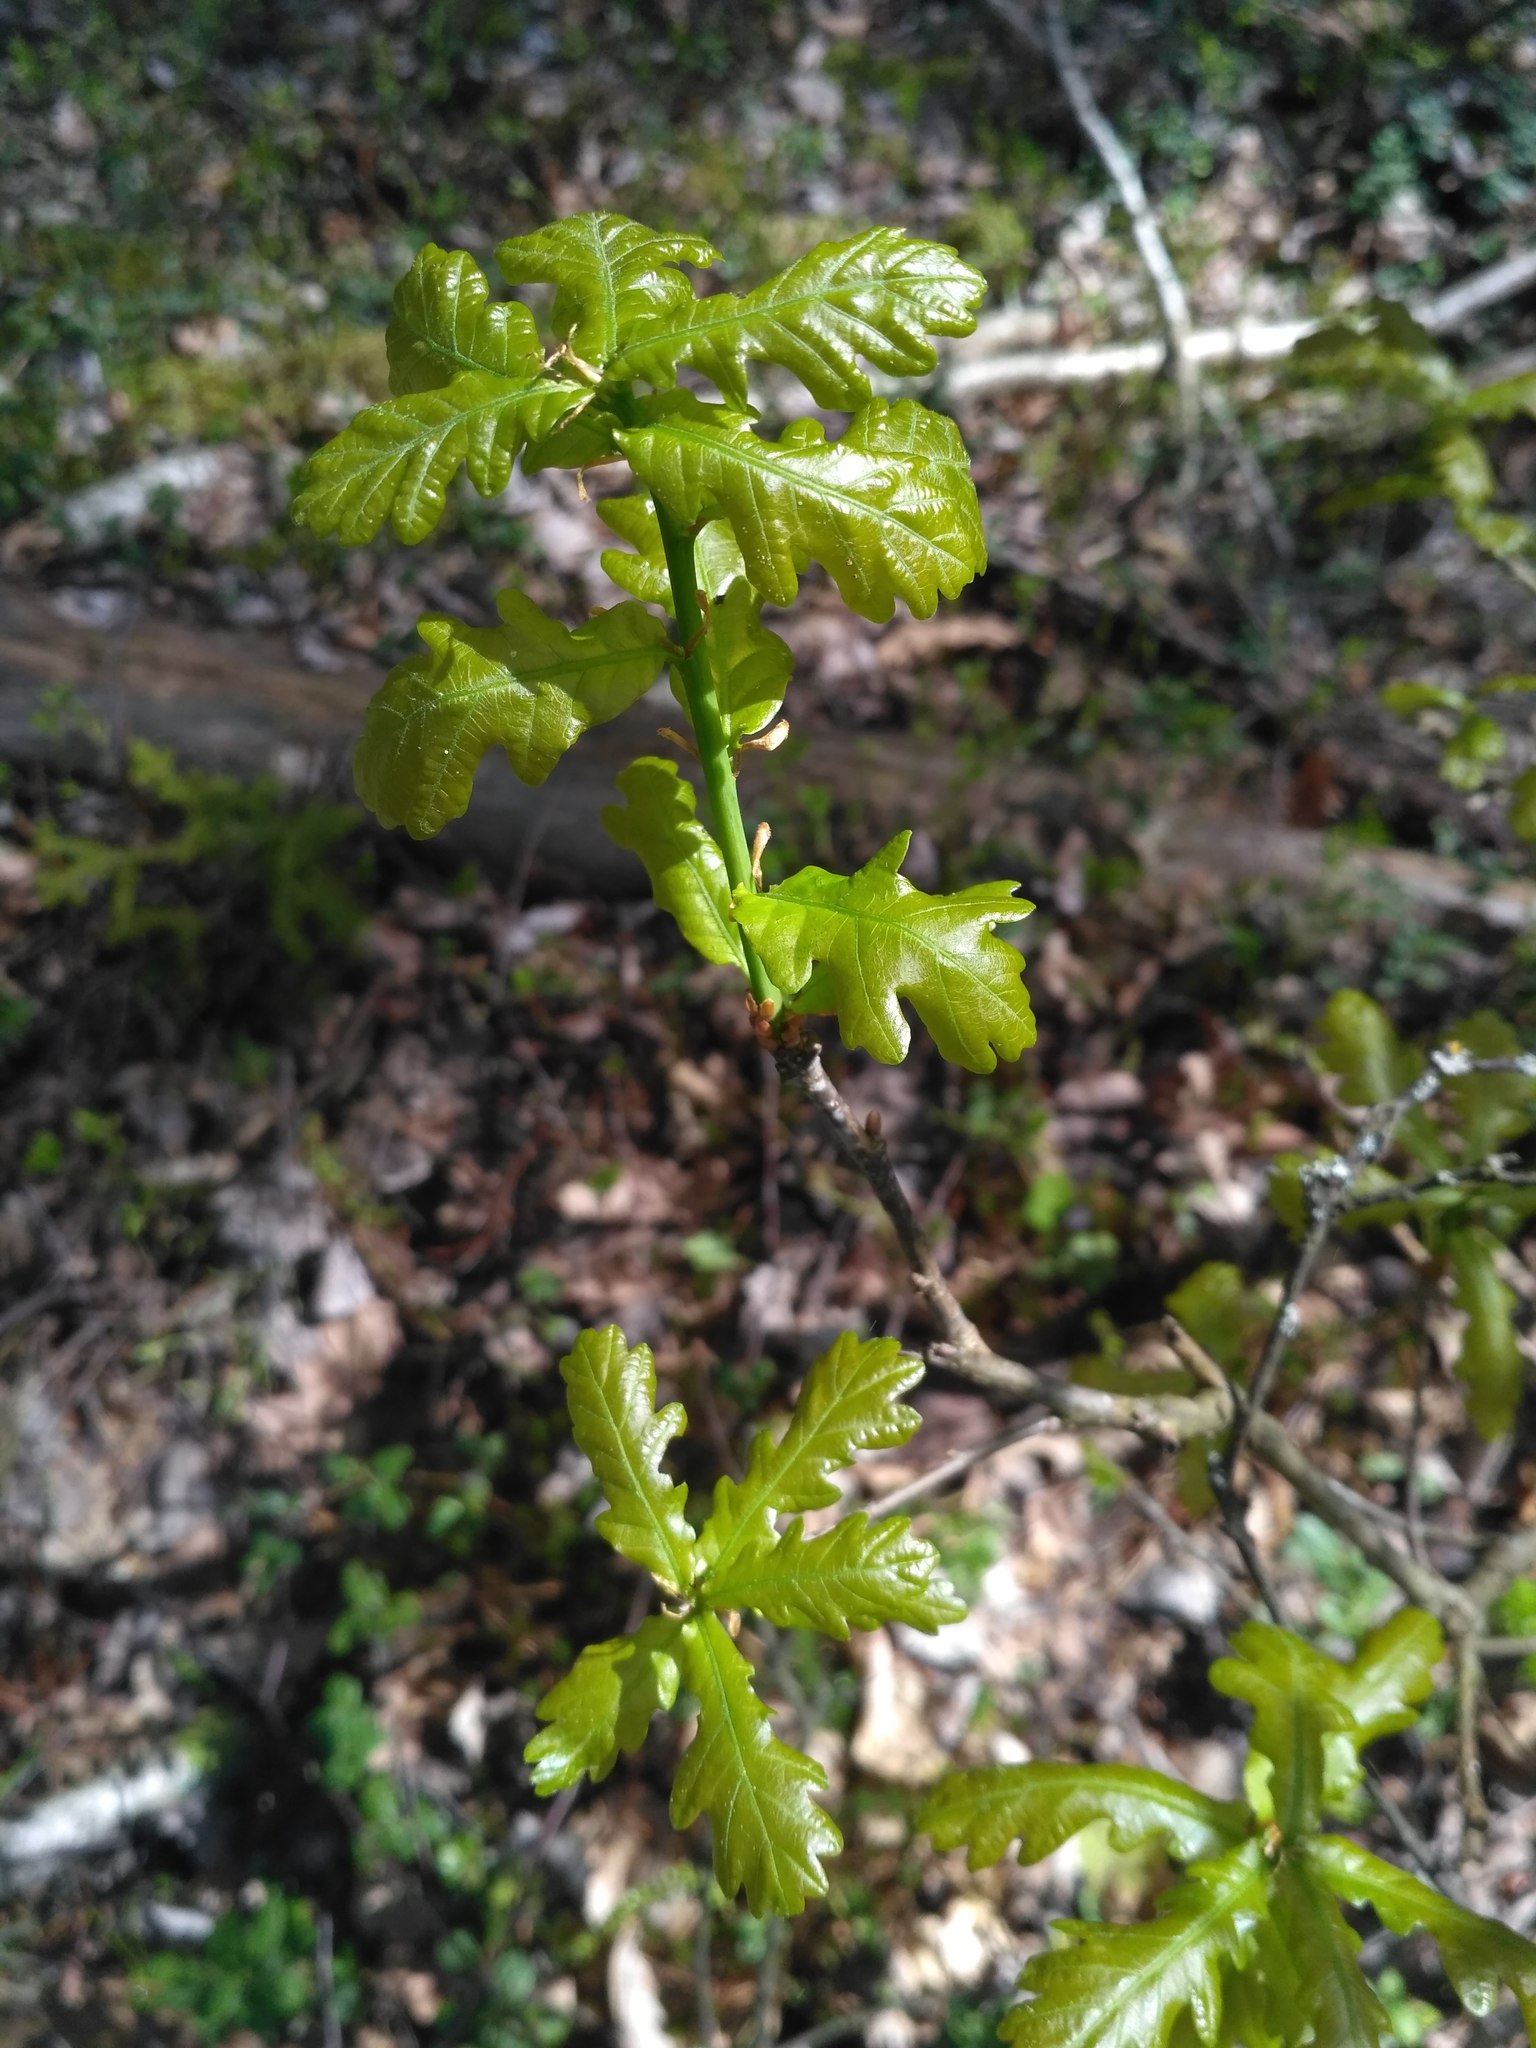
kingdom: Plantae
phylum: Tracheophyta
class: Magnoliopsida
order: Fagales
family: Fagaceae
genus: Quercus
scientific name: Quercus robur
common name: Pedunculate oak
